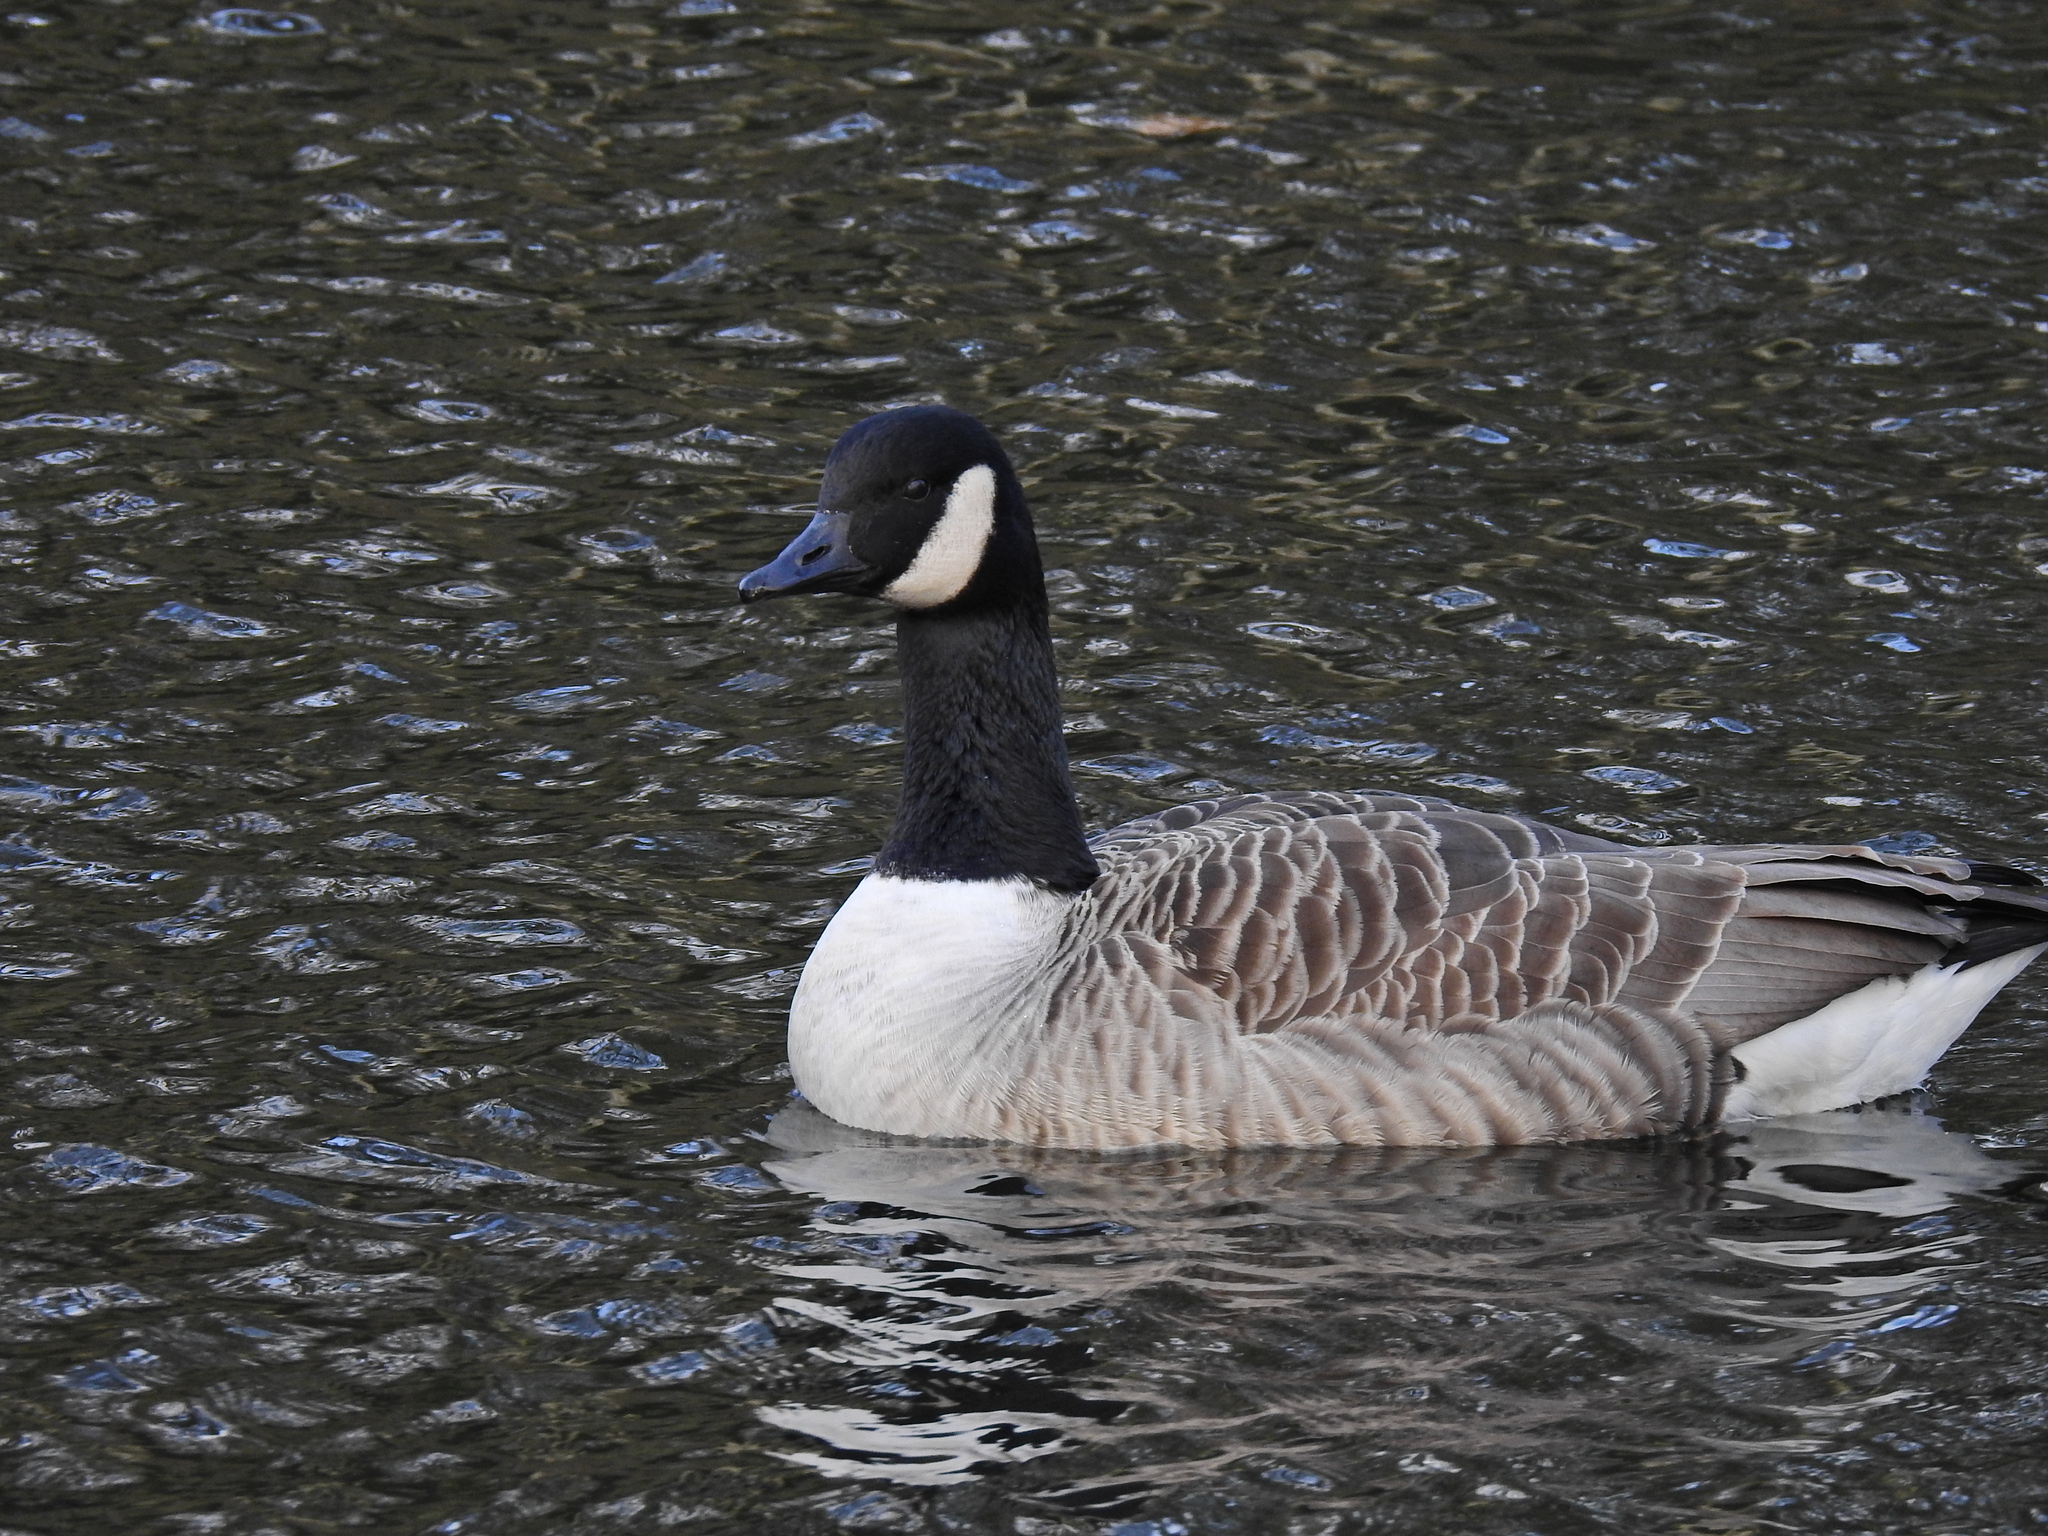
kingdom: Animalia
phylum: Chordata
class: Aves
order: Anseriformes
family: Anatidae
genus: Branta
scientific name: Branta canadensis
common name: Canada goose
